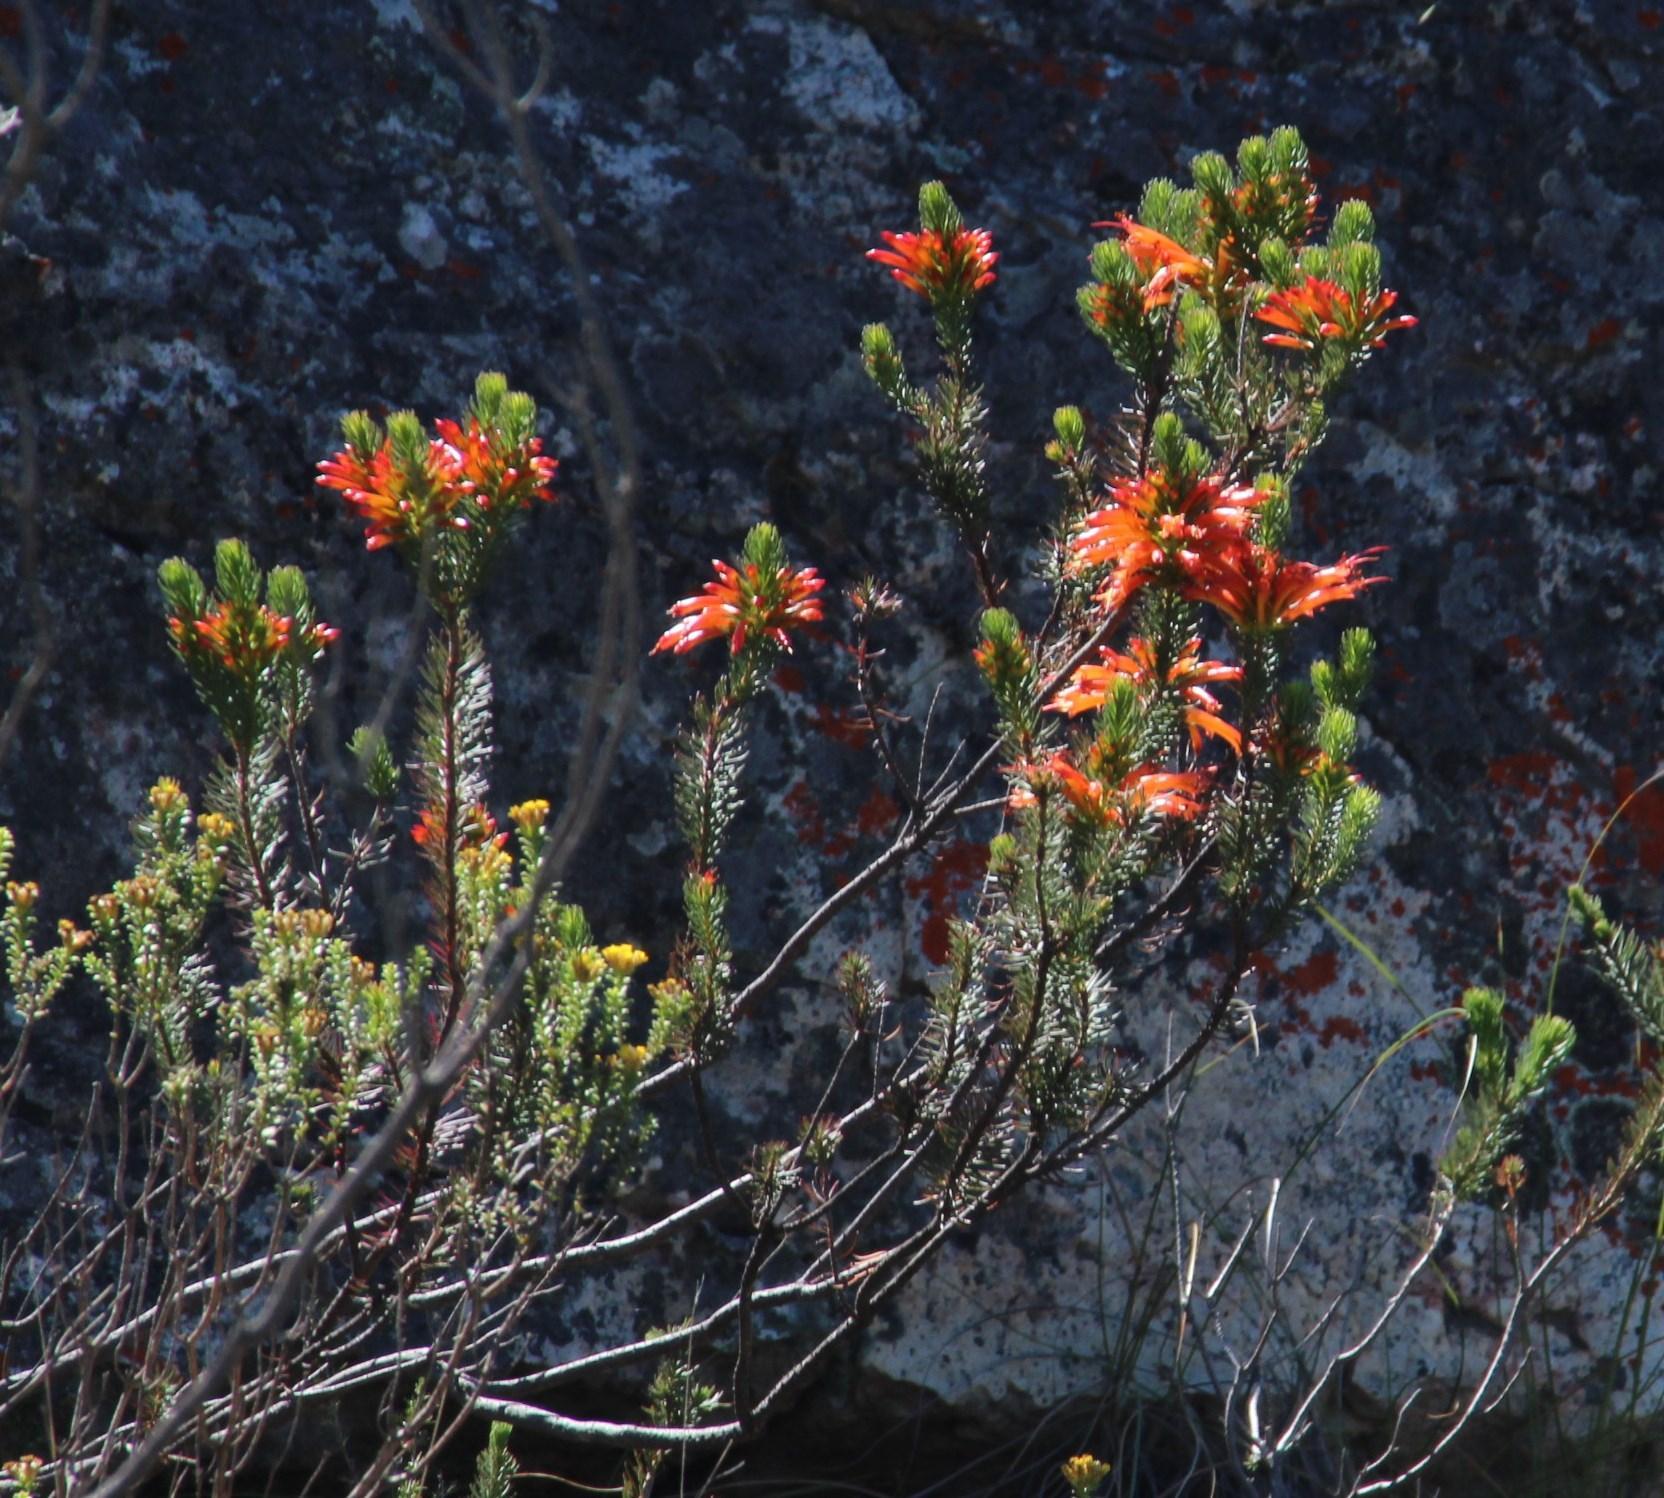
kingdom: Plantae
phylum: Tracheophyta
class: Magnoliopsida
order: Ericales
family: Ericaceae
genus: Erica
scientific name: Erica grandiflora
